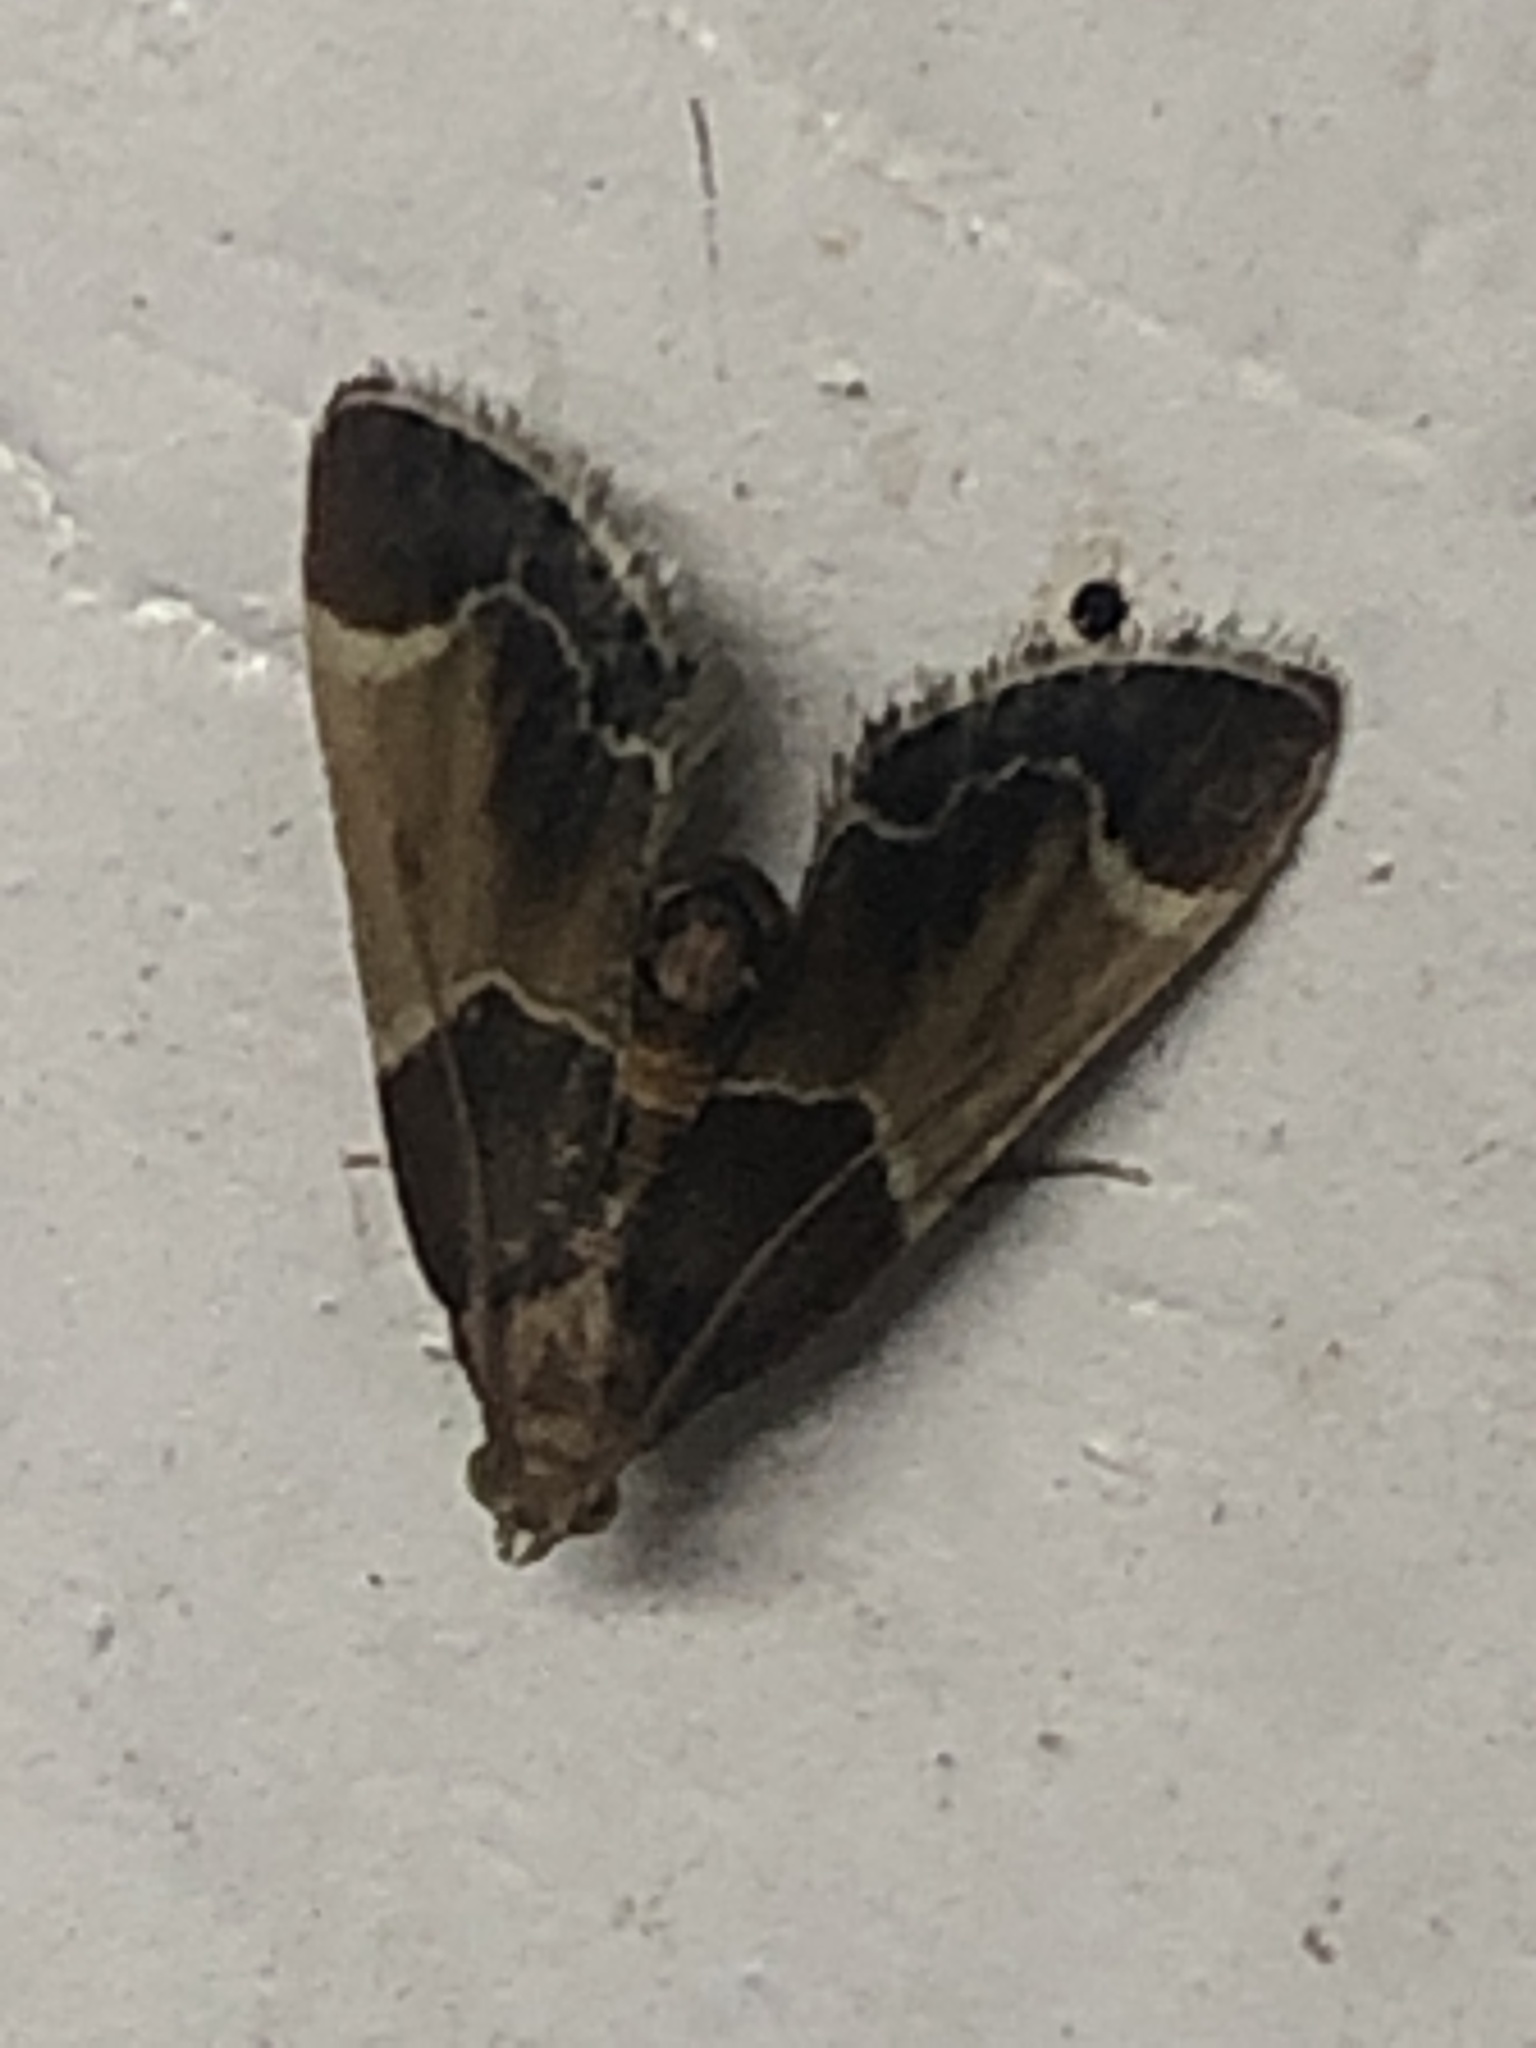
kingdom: Animalia
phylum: Arthropoda
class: Insecta
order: Lepidoptera
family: Pyralidae
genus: Pyralis
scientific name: Pyralis farinalis
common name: Meal moth
